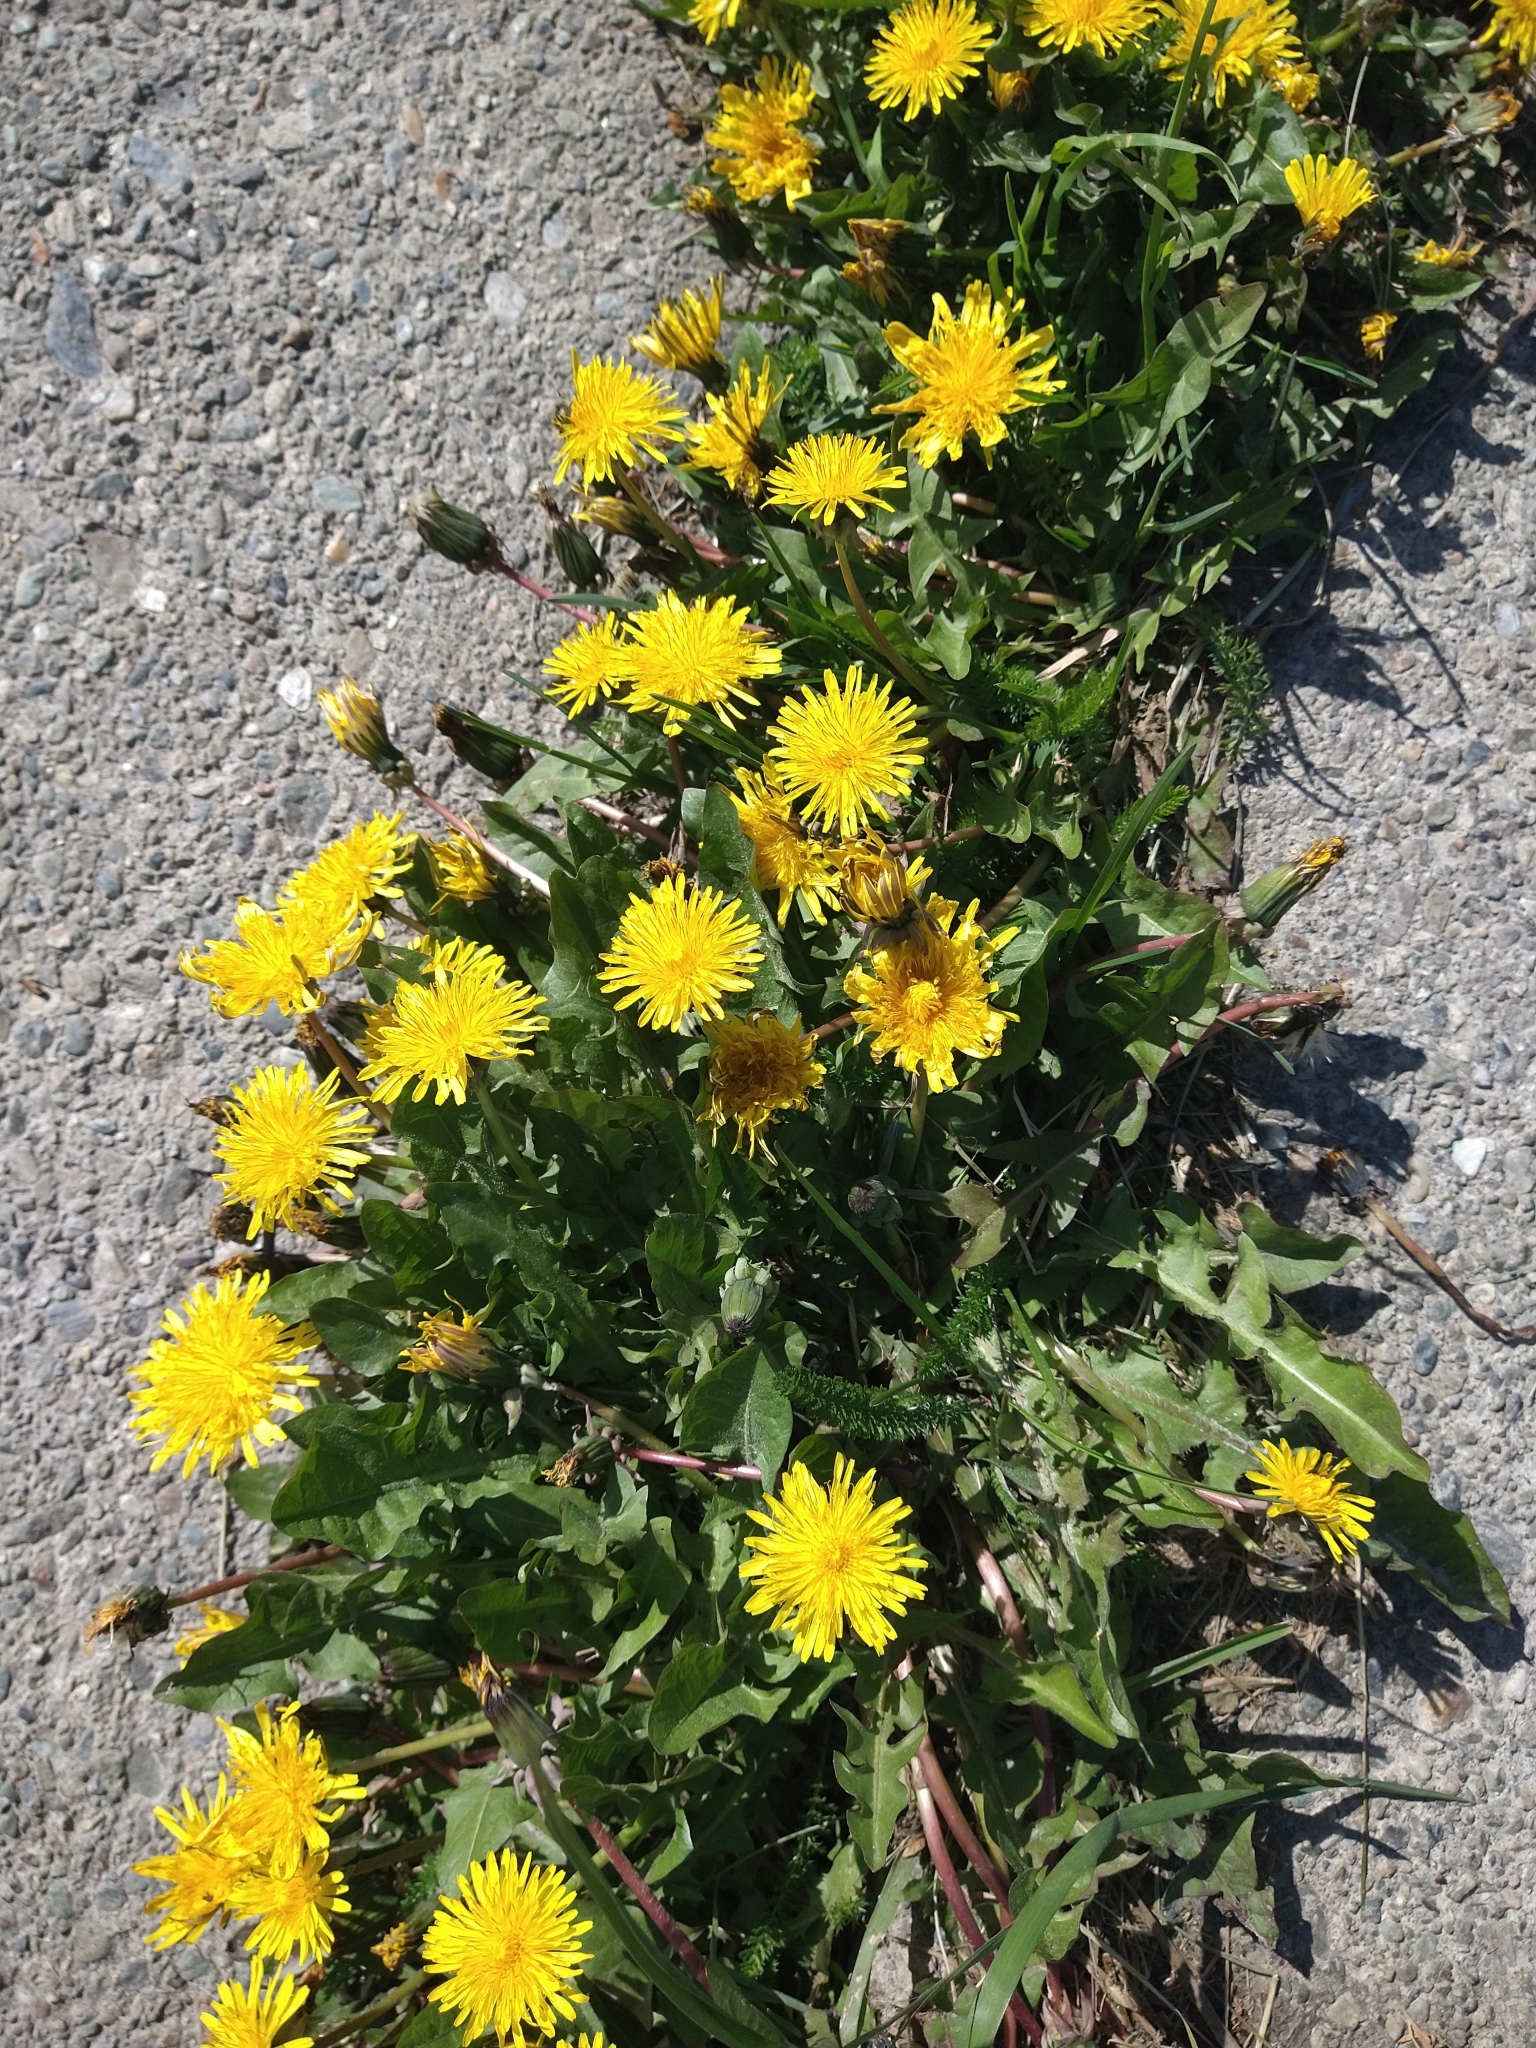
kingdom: Plantae
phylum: Tracheophyta
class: Magnoliopsida
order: Asterales
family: Asteraceae
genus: Taraxacum
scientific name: Taraxacum officinale
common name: Common dandelion
